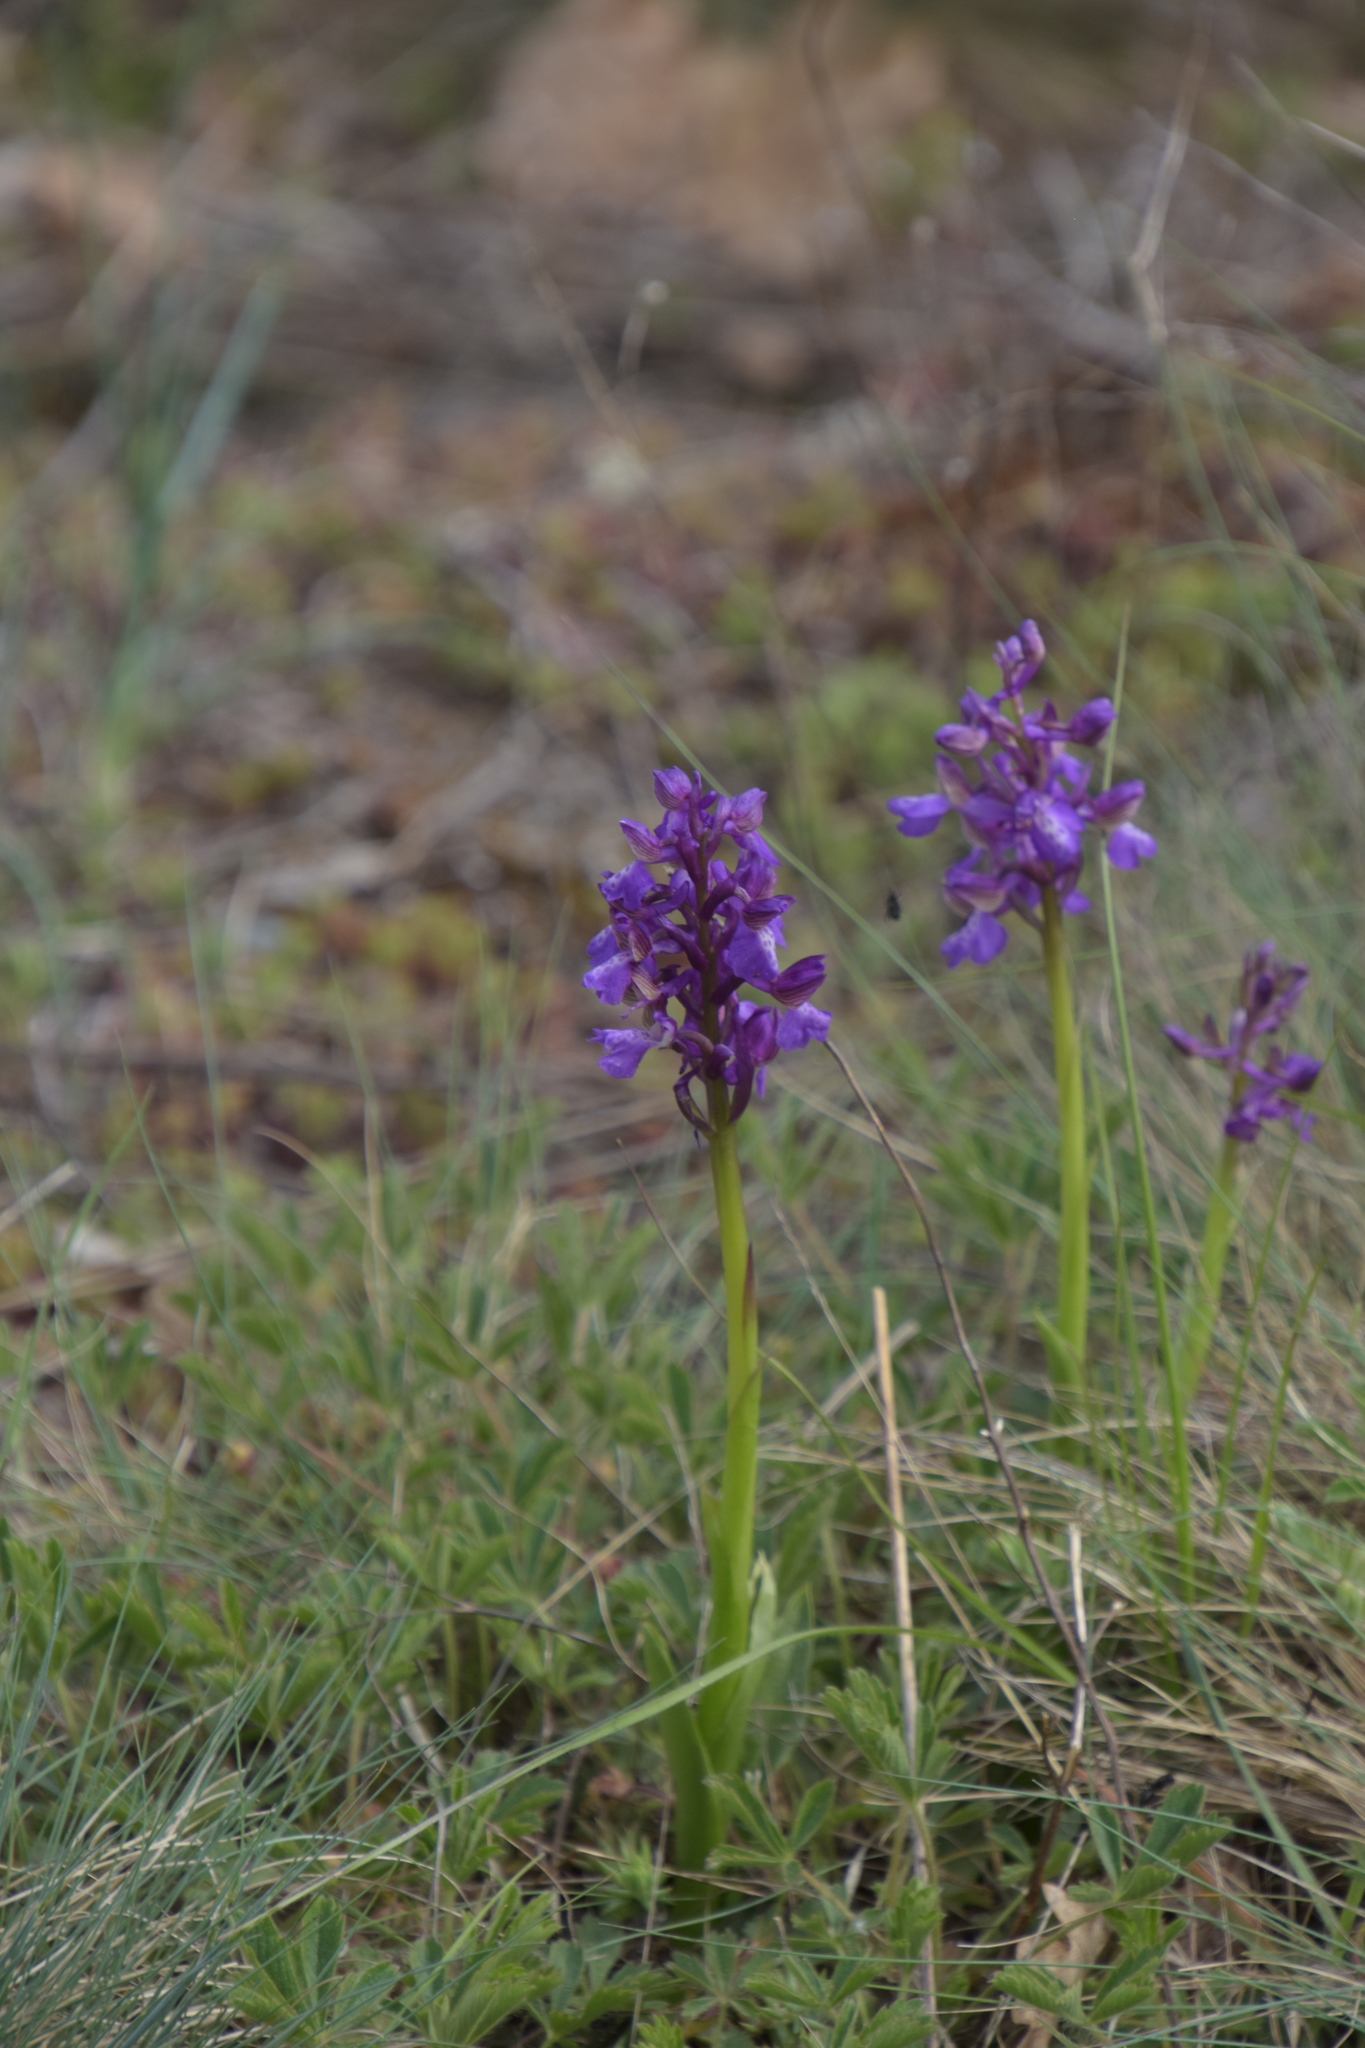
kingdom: Plantae
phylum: Tracheophyta
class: Liliopsida
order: Asparagales
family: Orchidaceae
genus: Anacamptis
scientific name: Anacamptis morio
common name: Green-winged orchid
